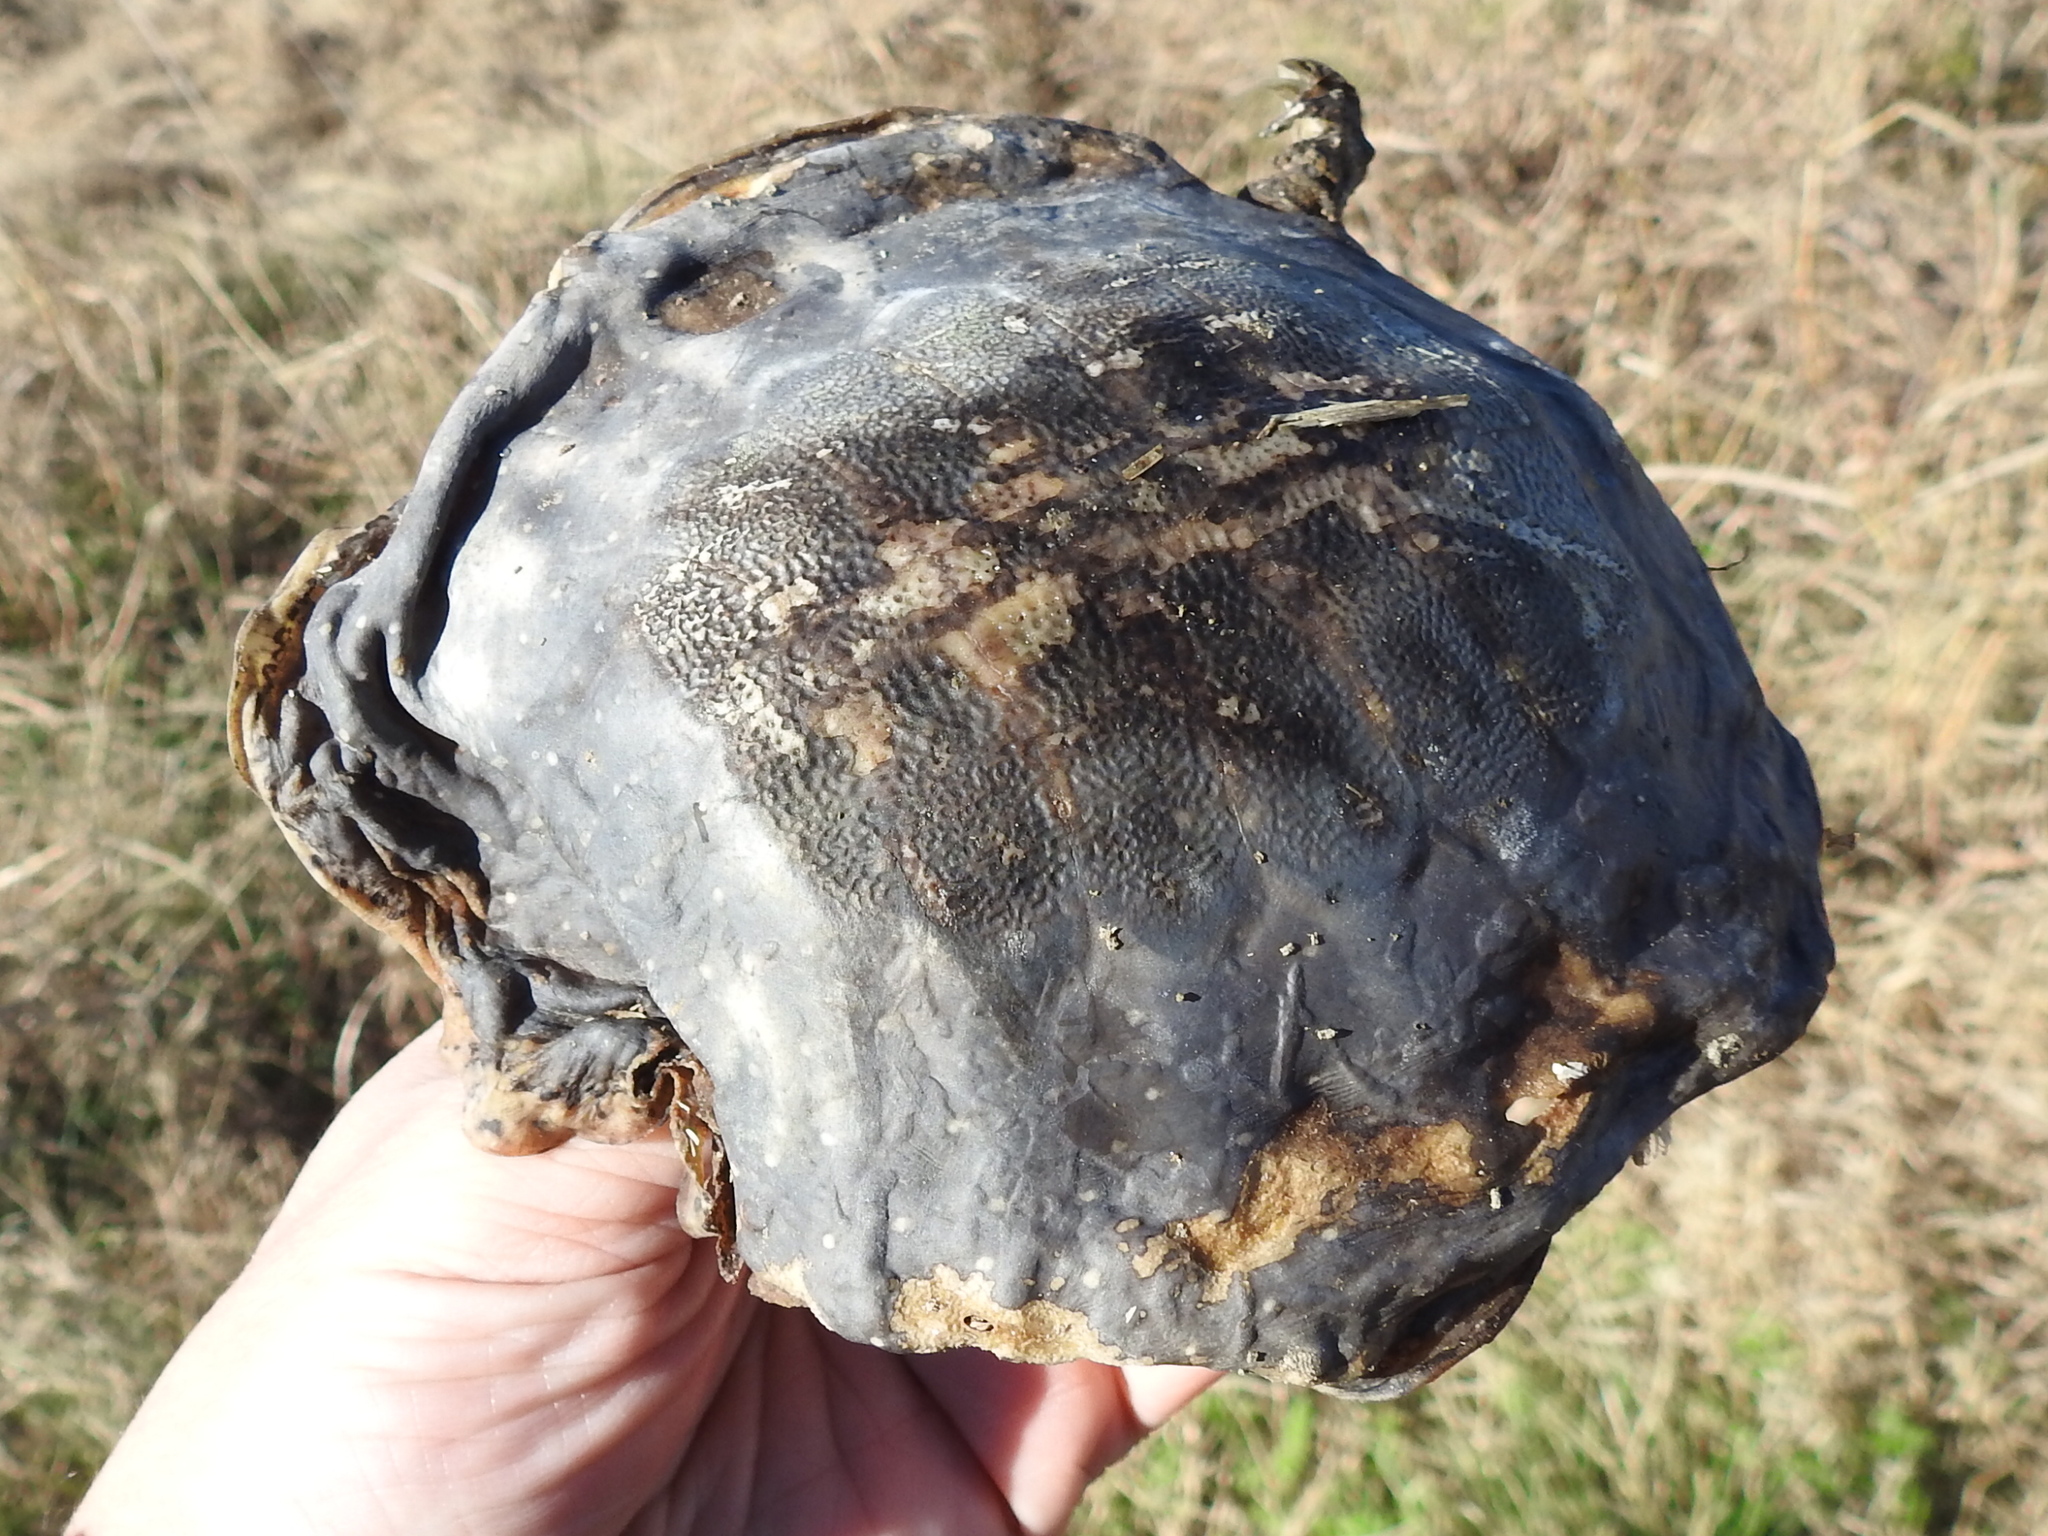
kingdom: Animalia
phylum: Chordata
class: Testudines
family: Trionychidae
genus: Apalone
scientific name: Apalone spinifera
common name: Spiny softshell turtle
